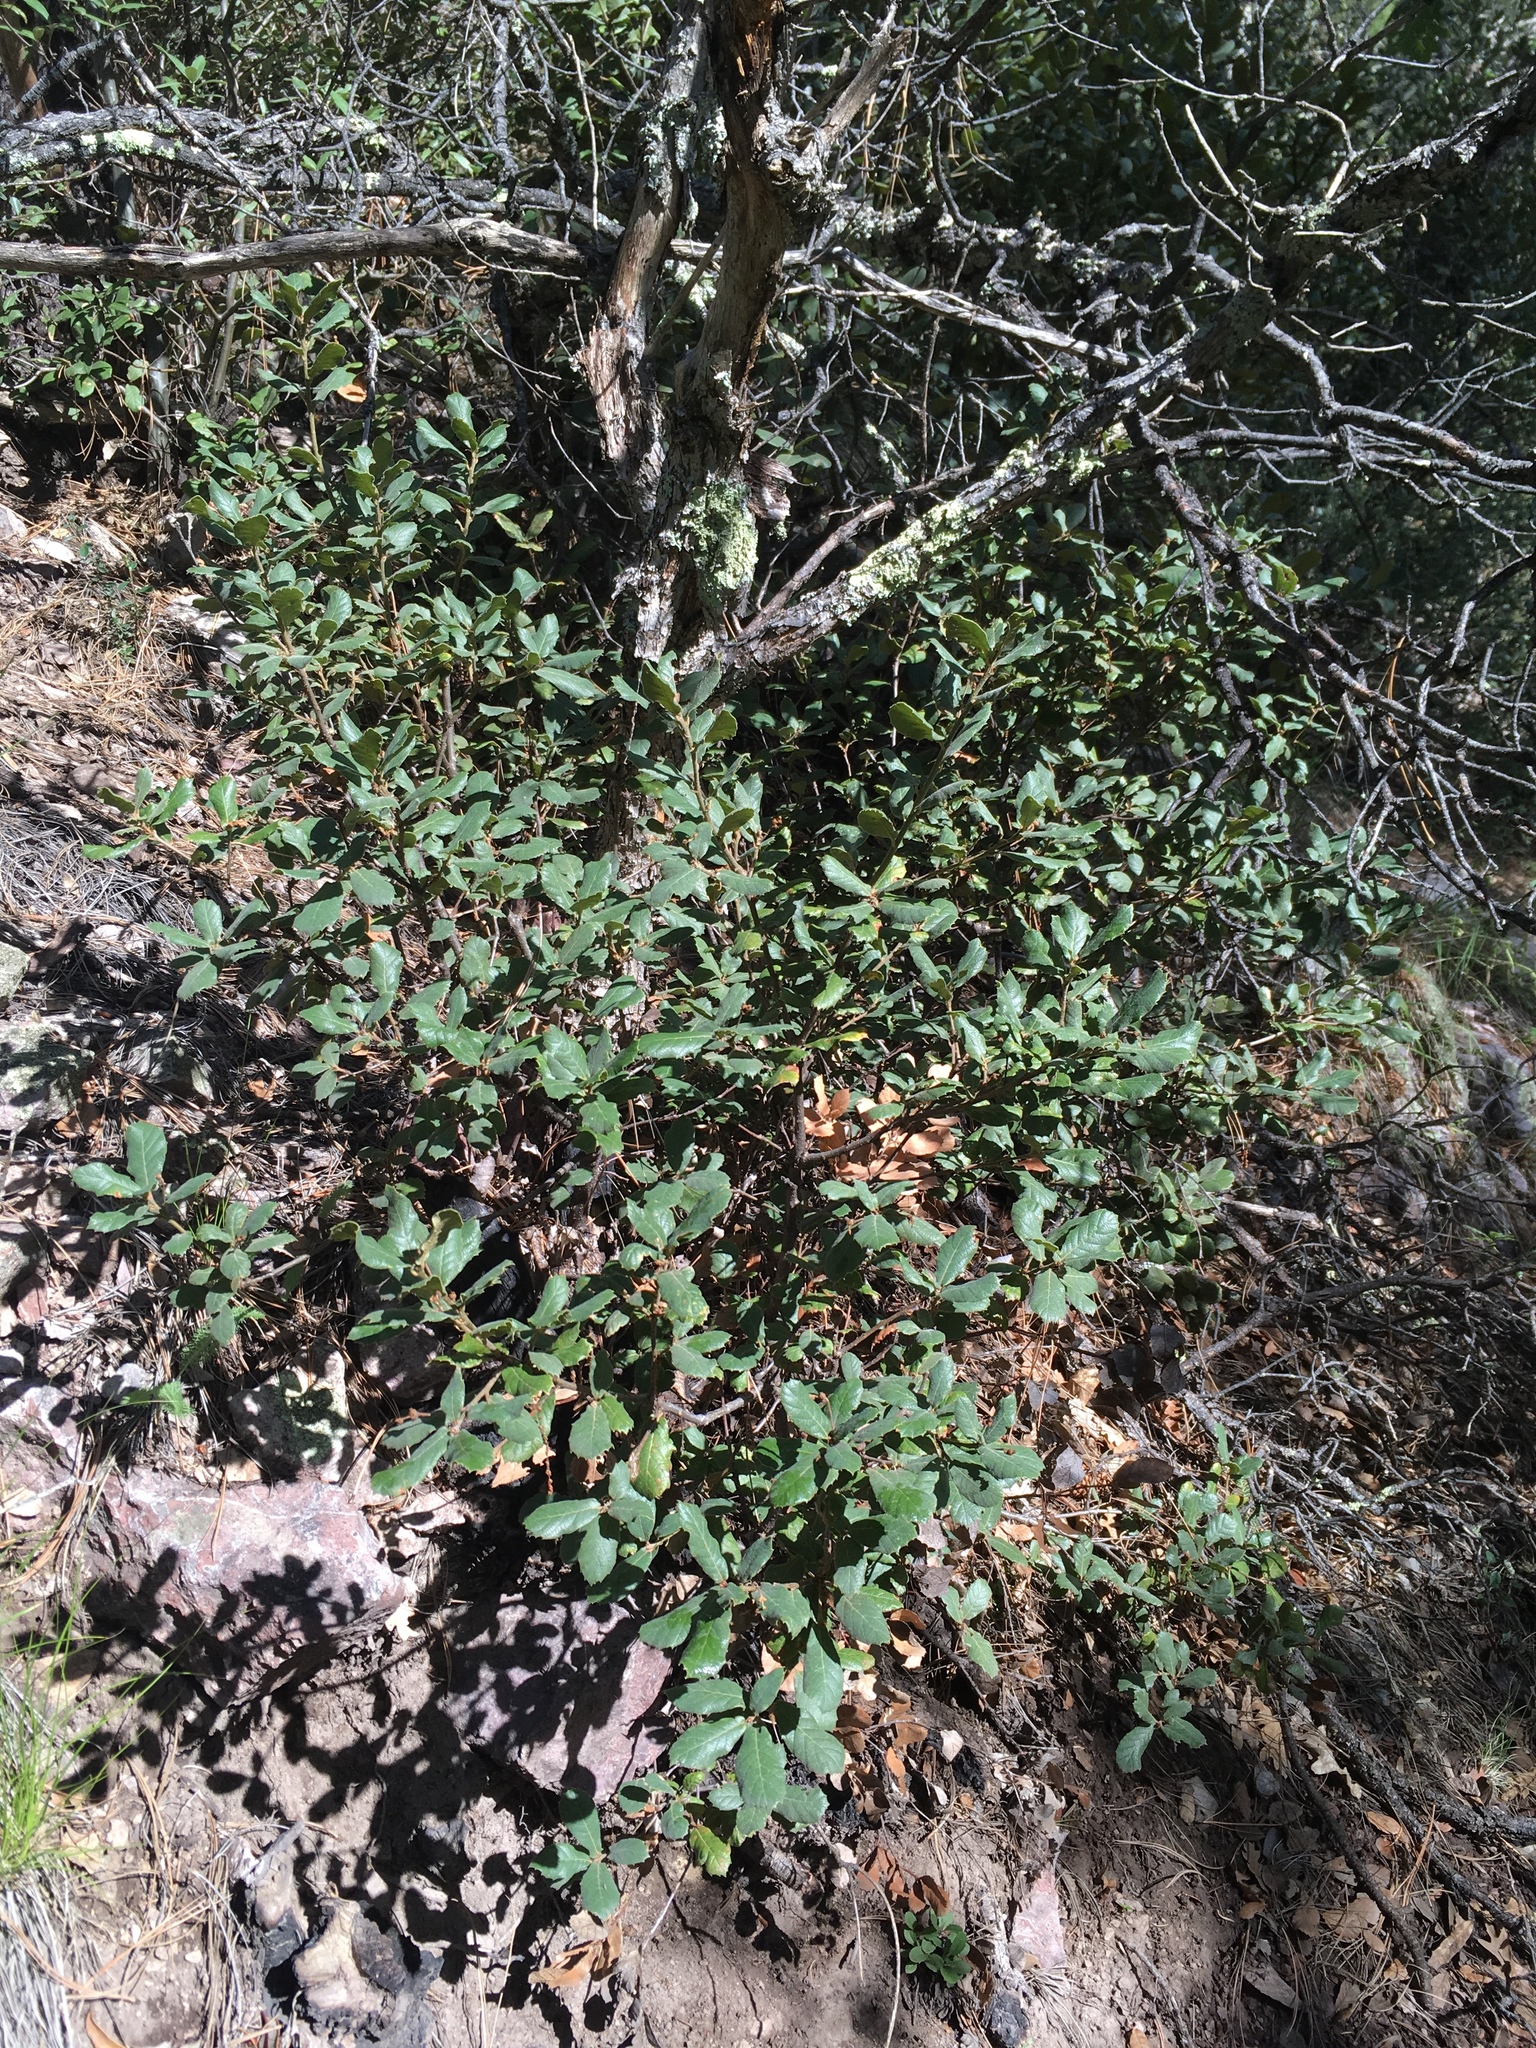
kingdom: Plantae
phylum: Tracheophyta
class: Magnoliopsida
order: Fagales
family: Fagaceae
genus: Quercus
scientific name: Quercus rugosa
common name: Netleaf oak
